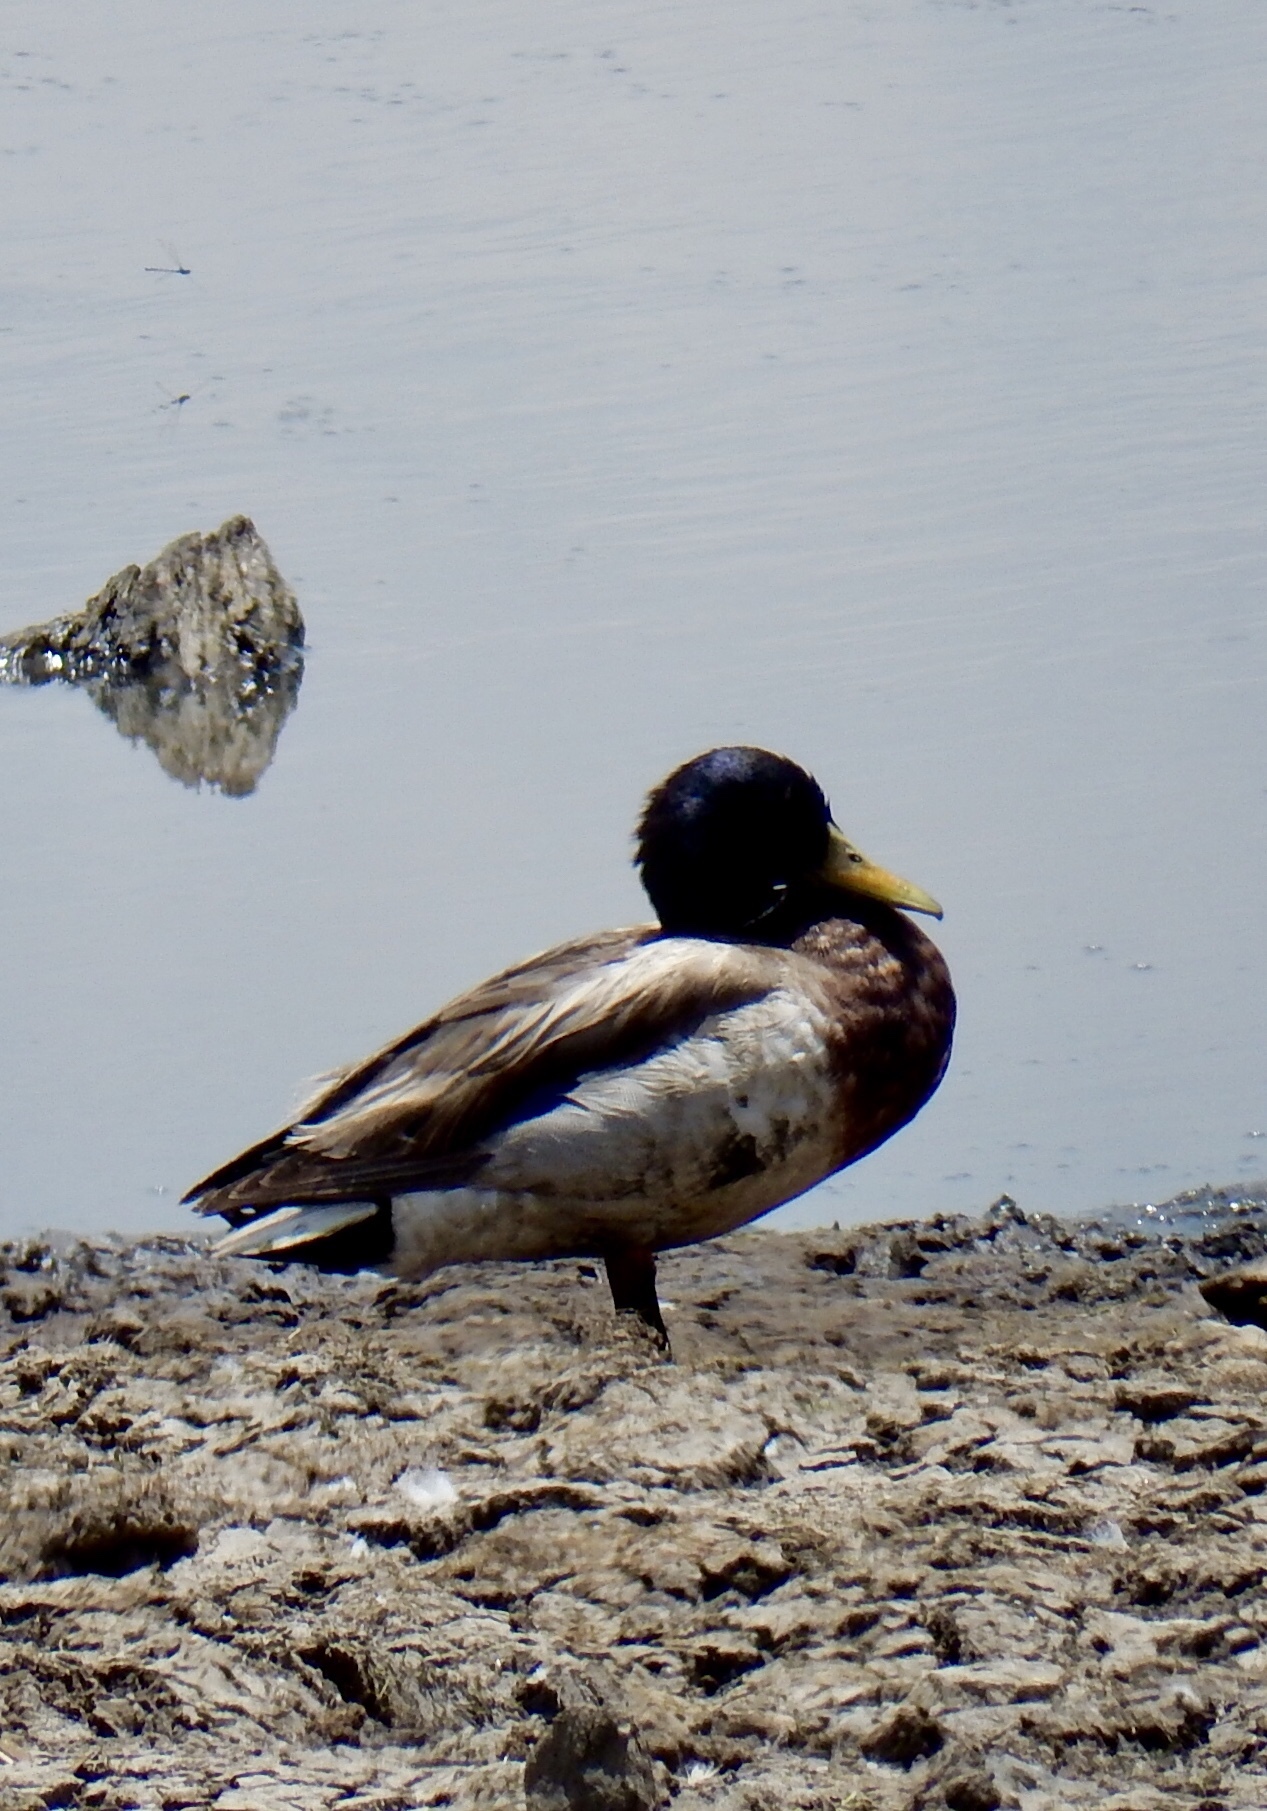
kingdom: Animalia
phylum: Chordata
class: Aves
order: Anseriformes
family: Anatidae
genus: Anas
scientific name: Anas platyrhynchos
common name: Mallard
